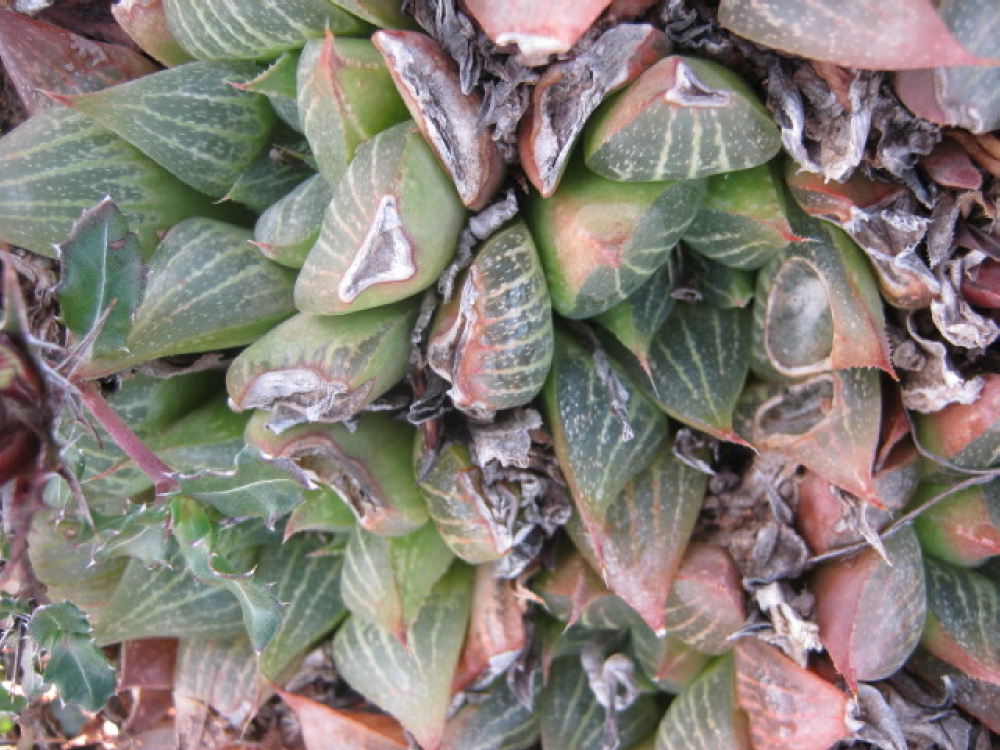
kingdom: Plantae
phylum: Tracheophyta
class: Liliopsida
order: Asparagales
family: Asphodelaceae
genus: Haworthia
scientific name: Haworthia retusa
